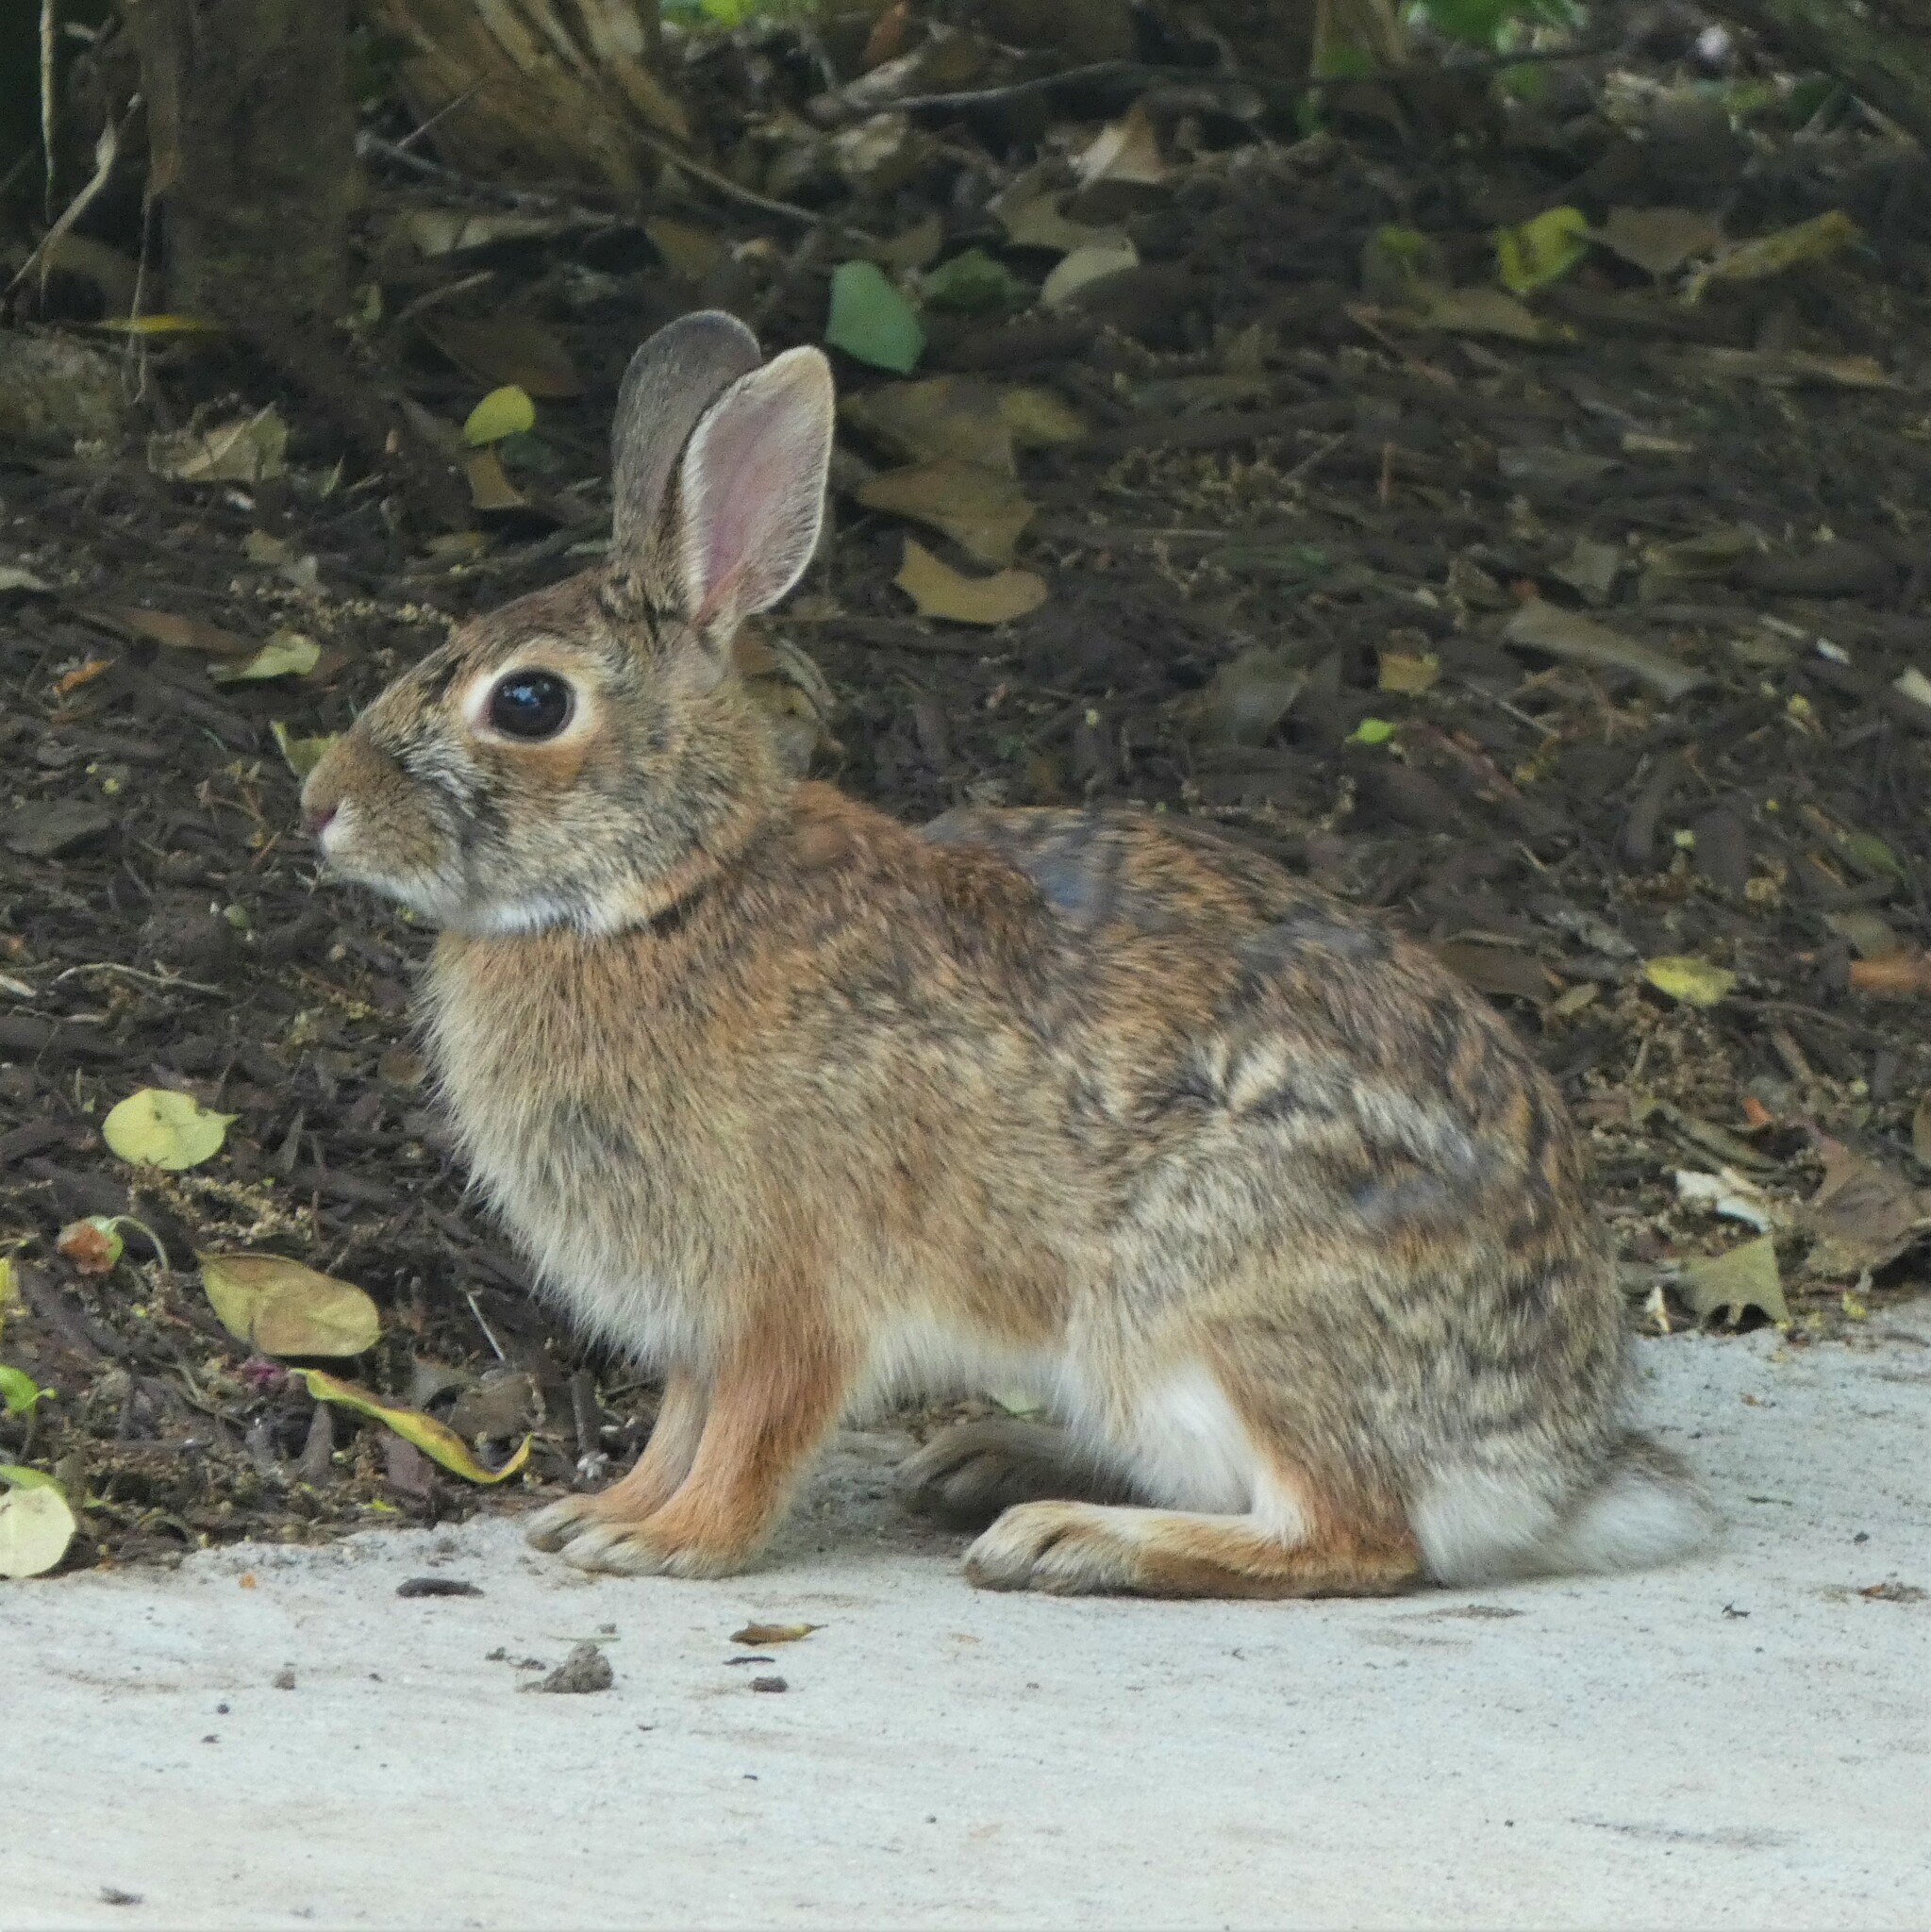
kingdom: Animalia
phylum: Chordata
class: Mammalia
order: Lagomorpha
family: Leporidae
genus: Sylvilagus
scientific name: Sylvilagus floridanus
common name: Eastern cottontail
